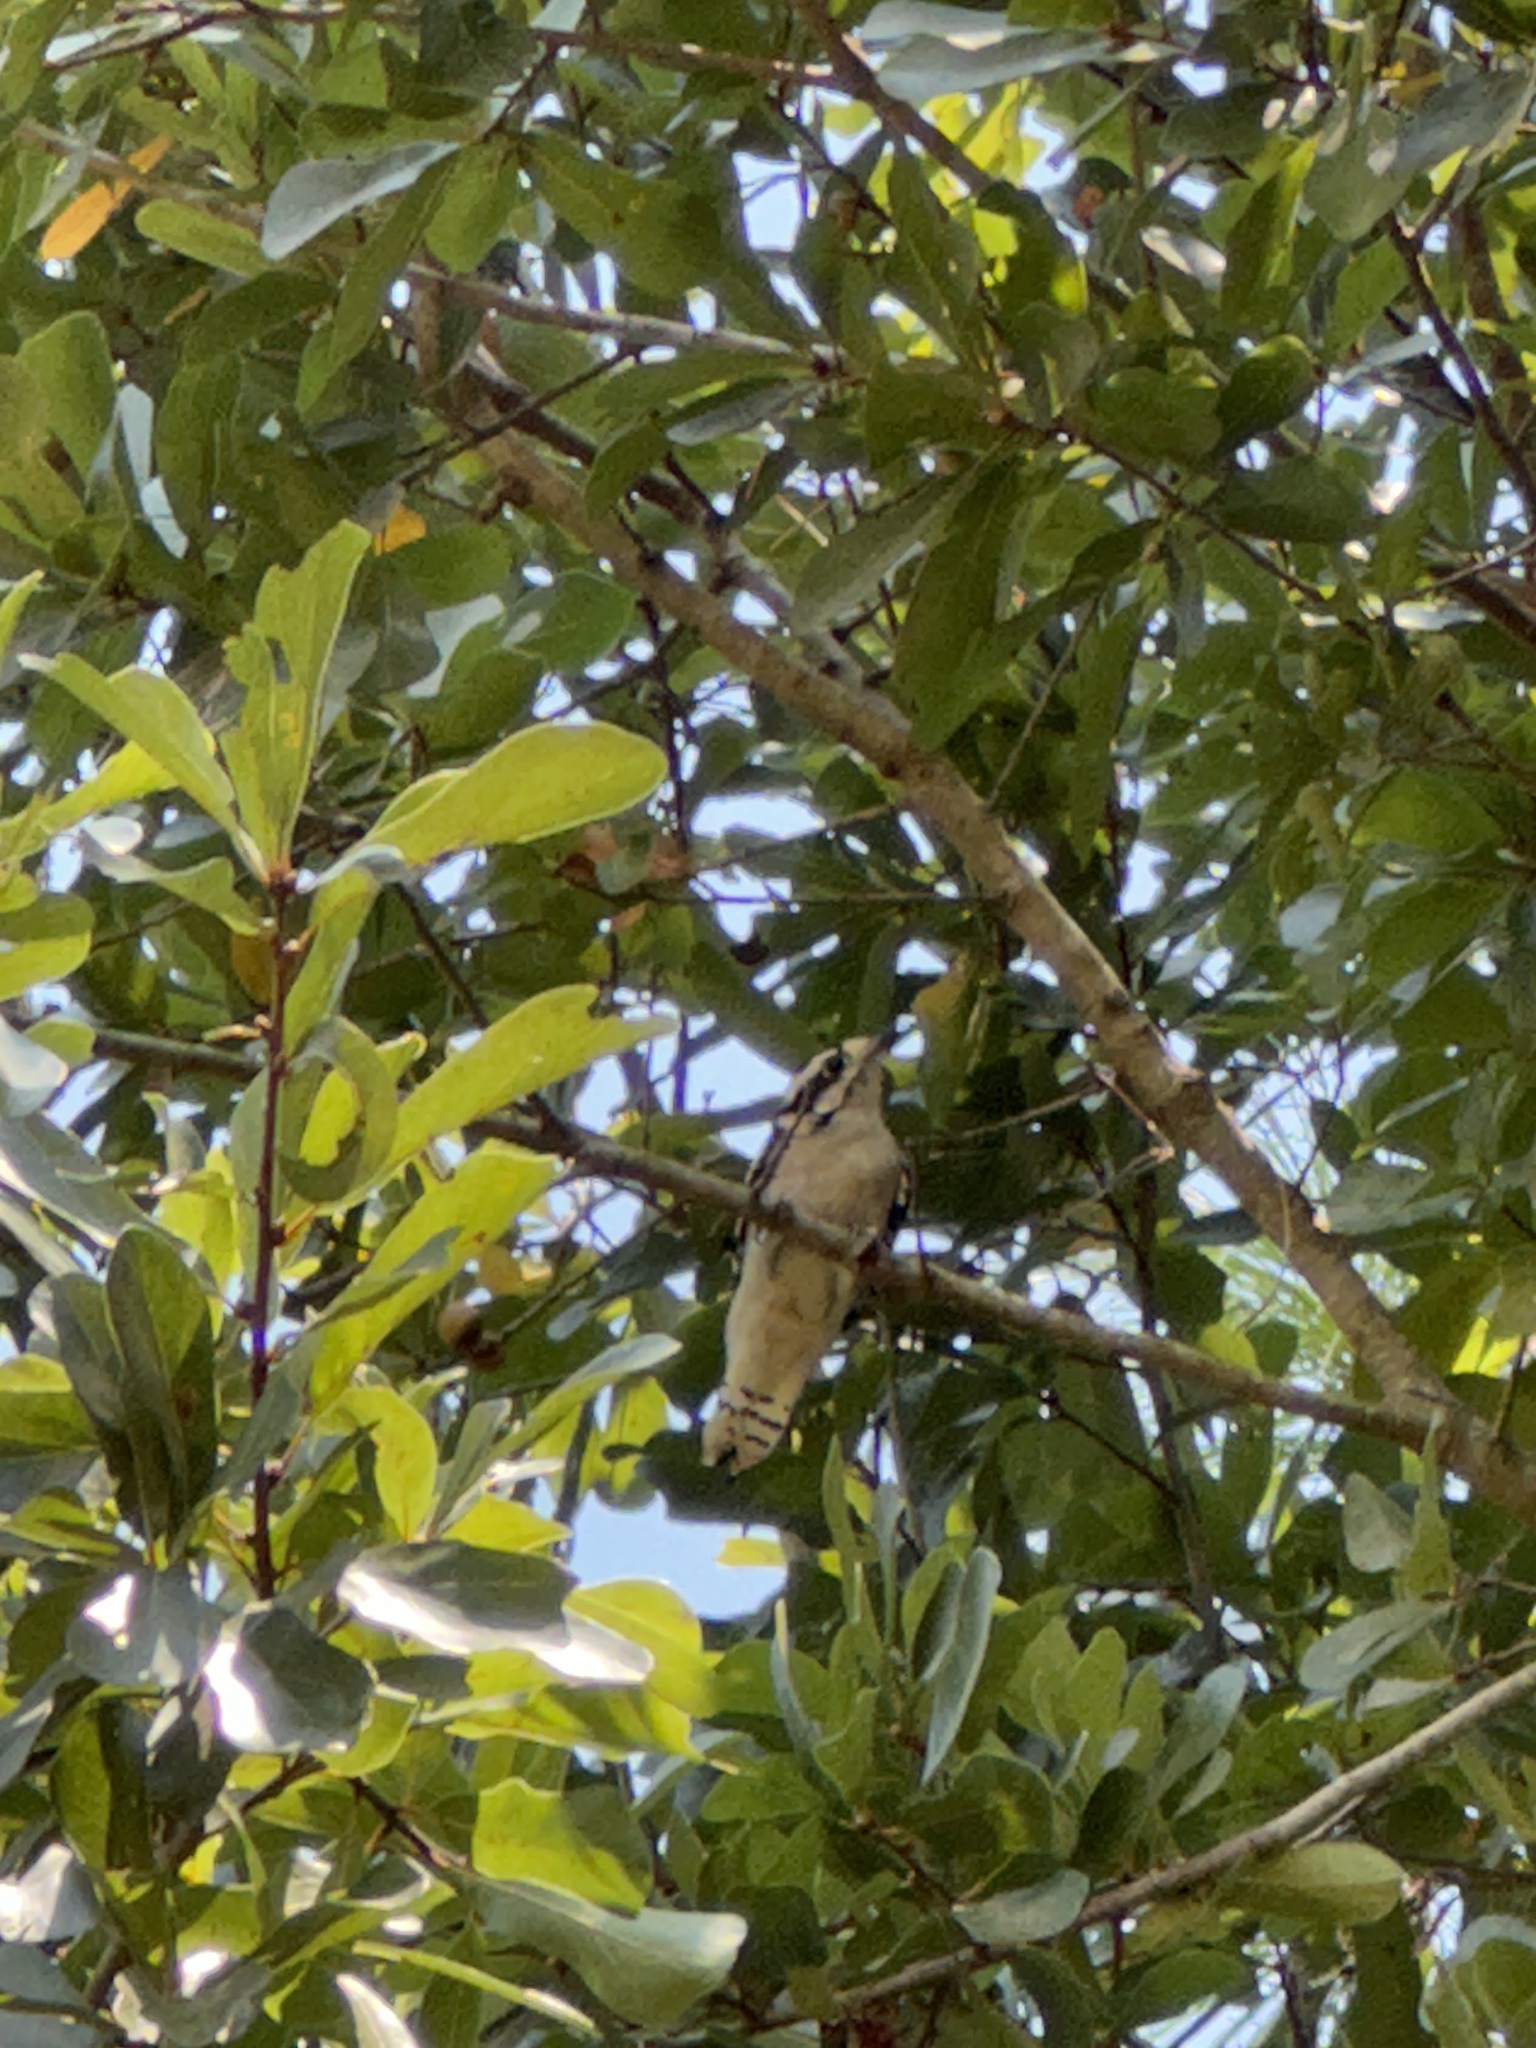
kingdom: Animalia
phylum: Chordata
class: Aves
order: Piciformes
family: Picidae
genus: Dryobates
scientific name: Dryobates pubescens
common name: Downy woodpecker
